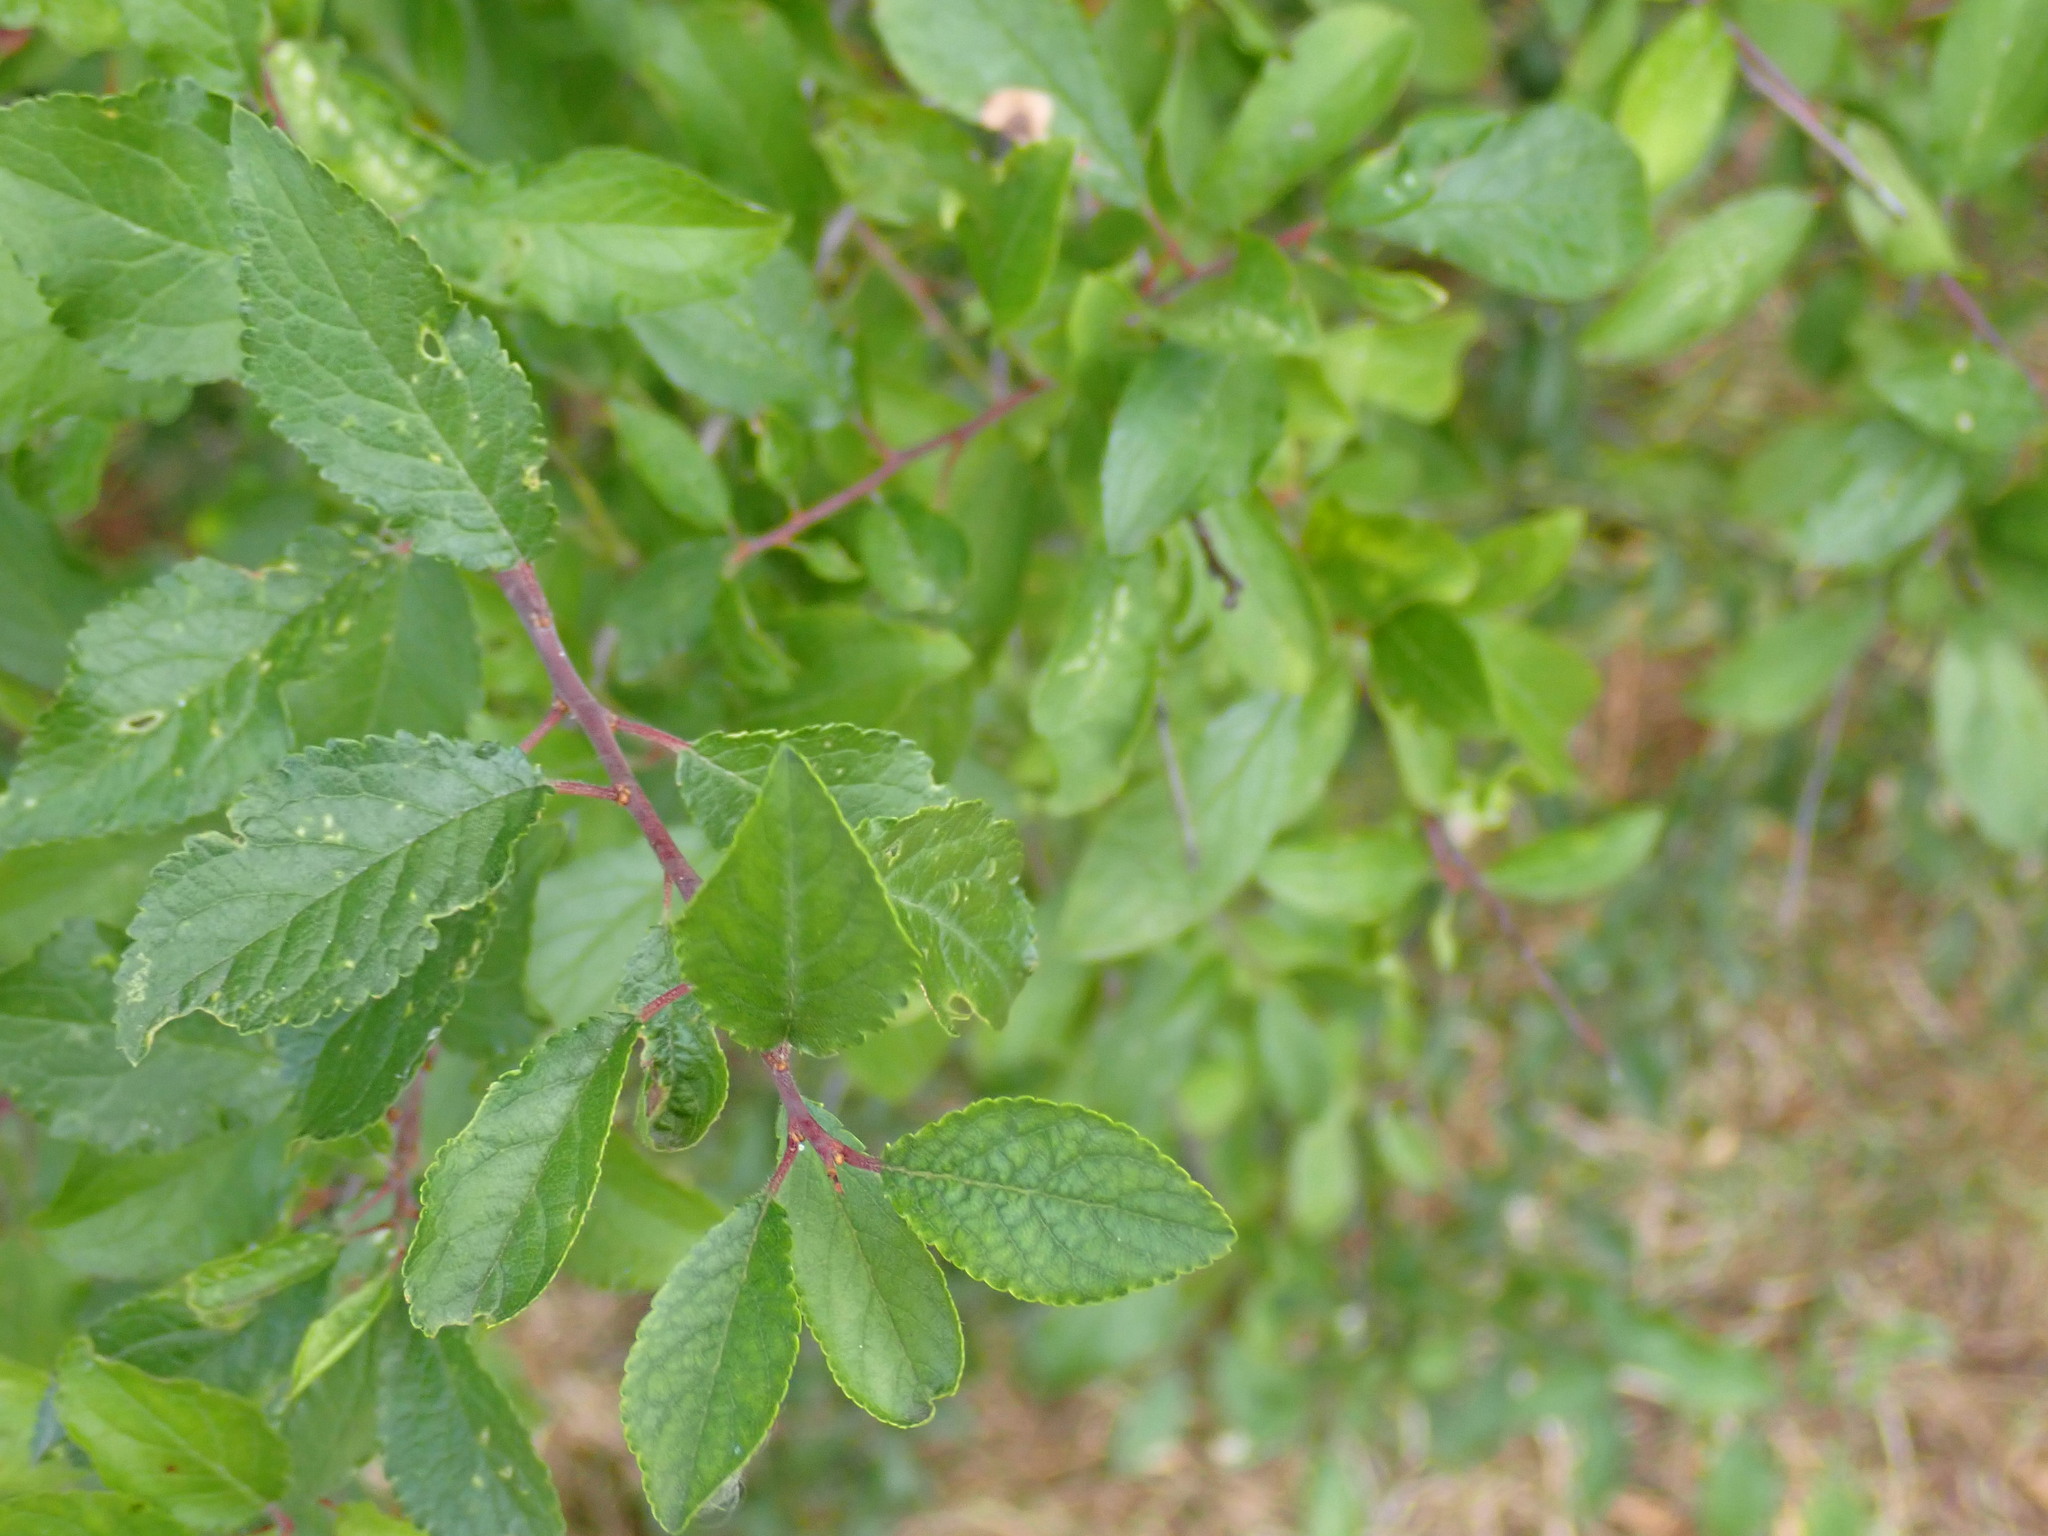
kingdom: Plantae
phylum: Tracheophyta
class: Magnoliopsida
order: Rosales
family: Rosaceae
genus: Prunus
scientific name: Prunus spinosa
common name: Blackthorn
